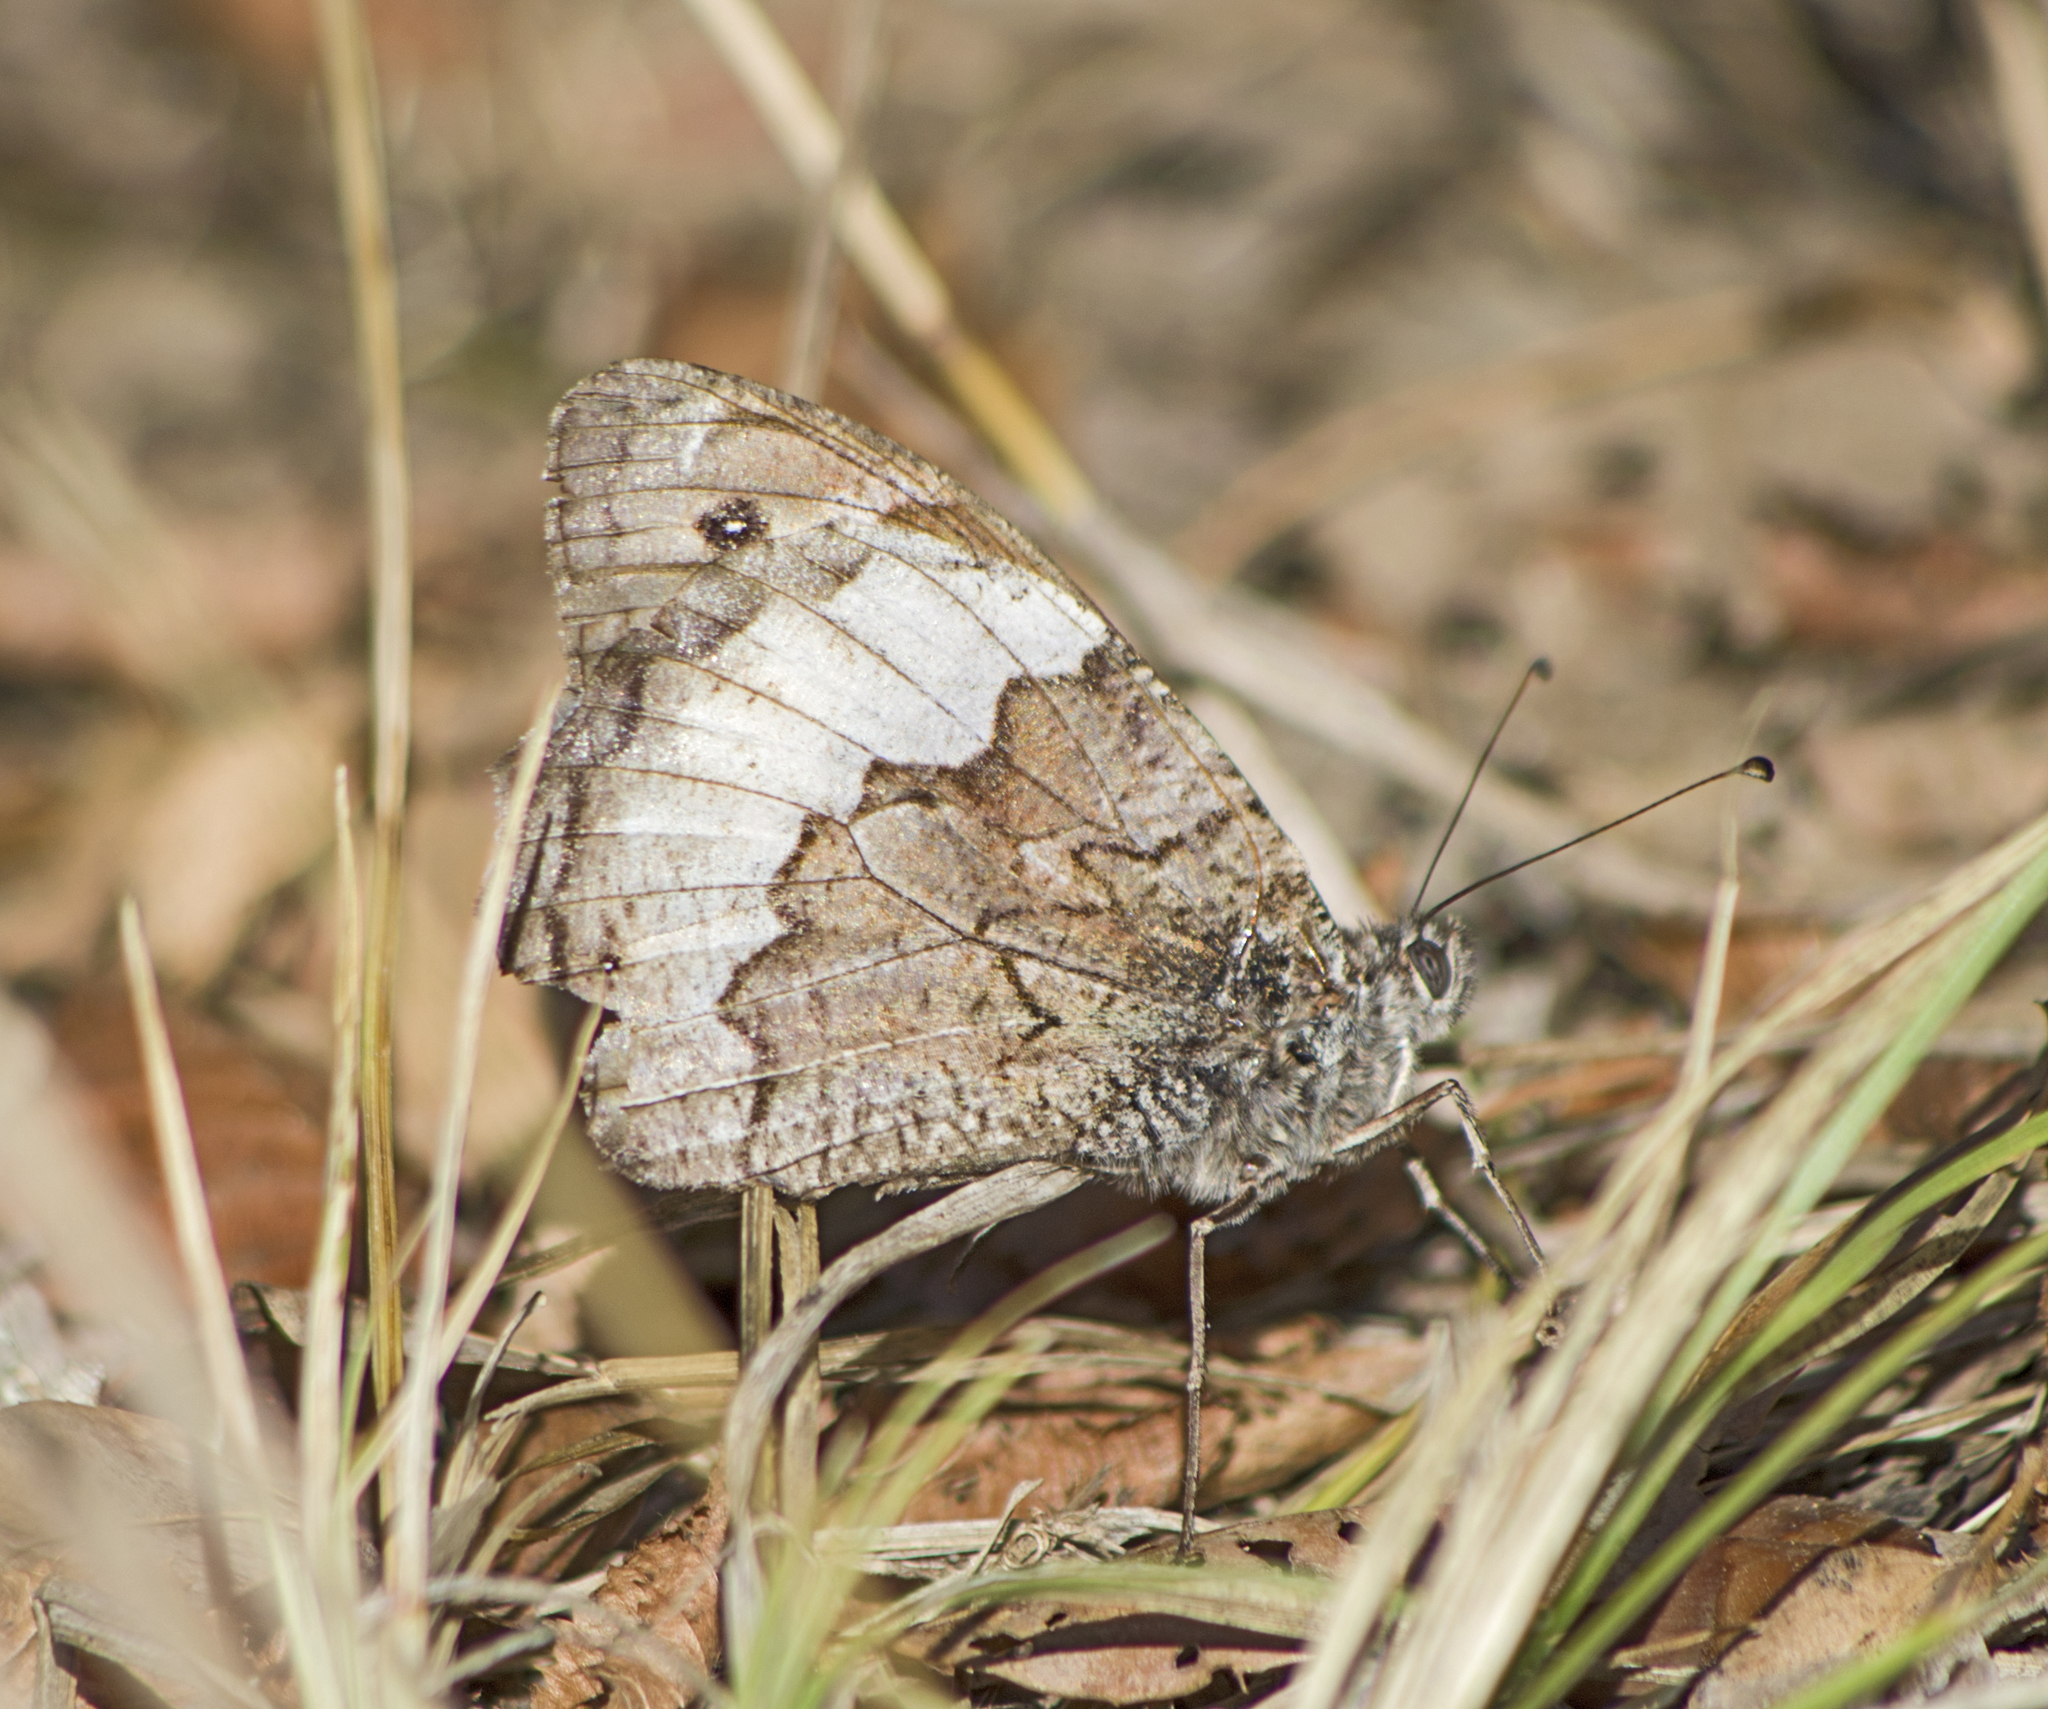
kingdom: Animalia
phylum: Arthropoda
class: Insecta
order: Lepidoptera
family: Nymphalidae
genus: Hipparchia
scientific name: Hipparchia syriaca
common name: Eastern rock grayling
